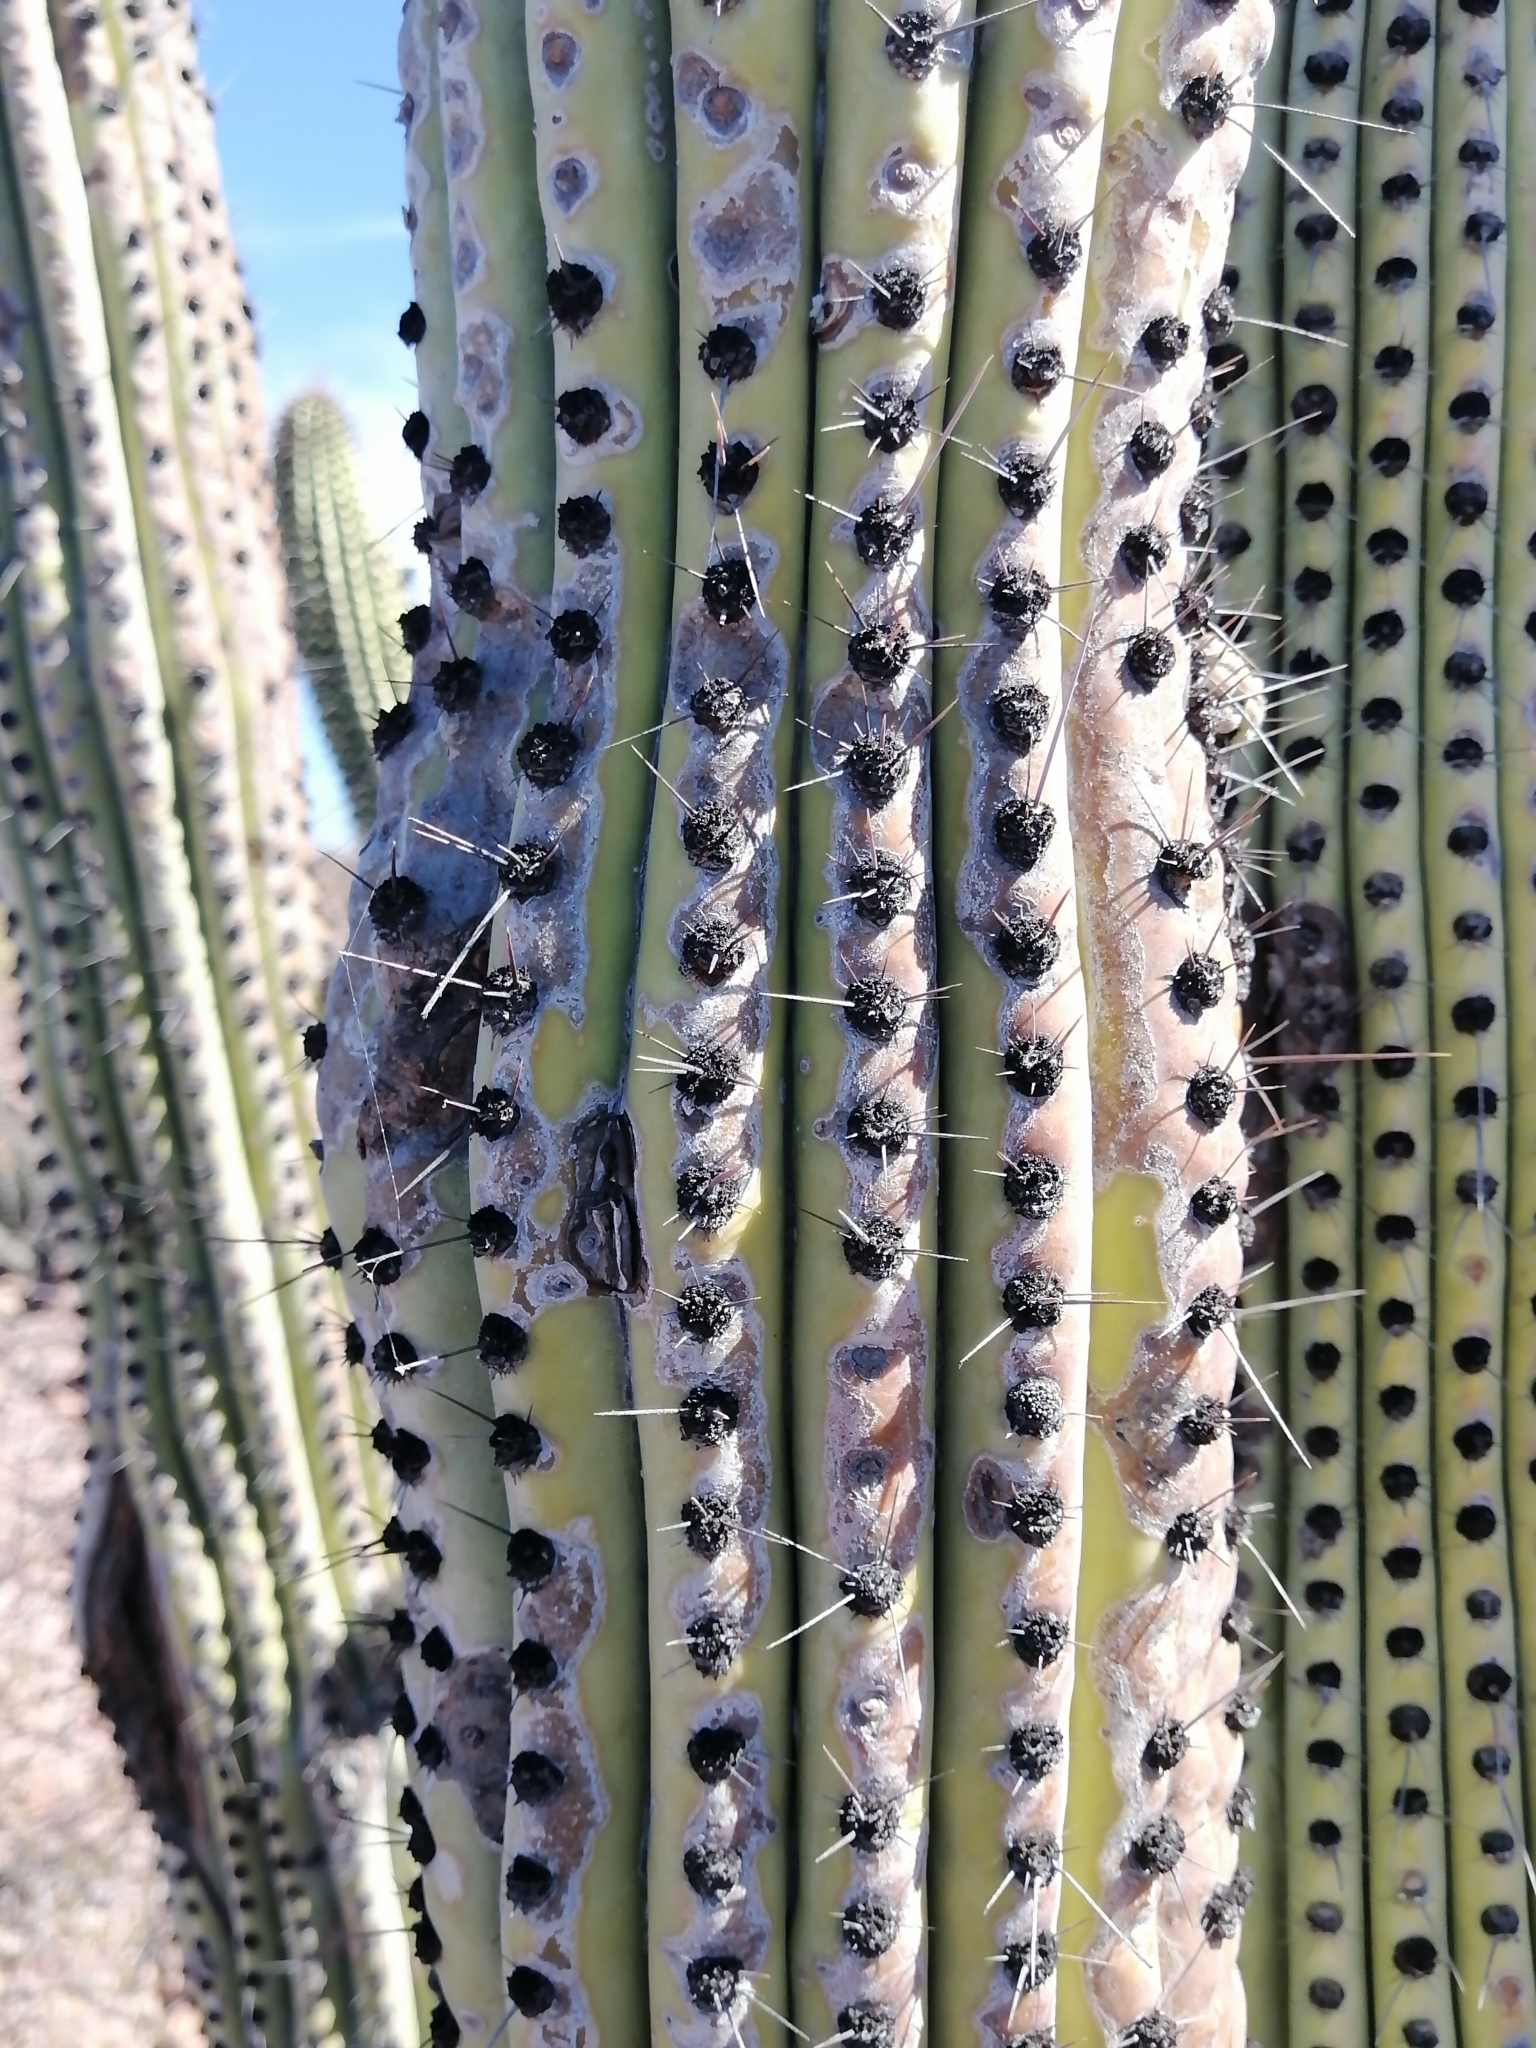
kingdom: Plantae
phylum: Tracheophyta
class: Magnoliopsida
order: Caryophyllales
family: Cactaceae
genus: Stenocereus
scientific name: Stenocereus thurberi
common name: Organ pipe cactus
